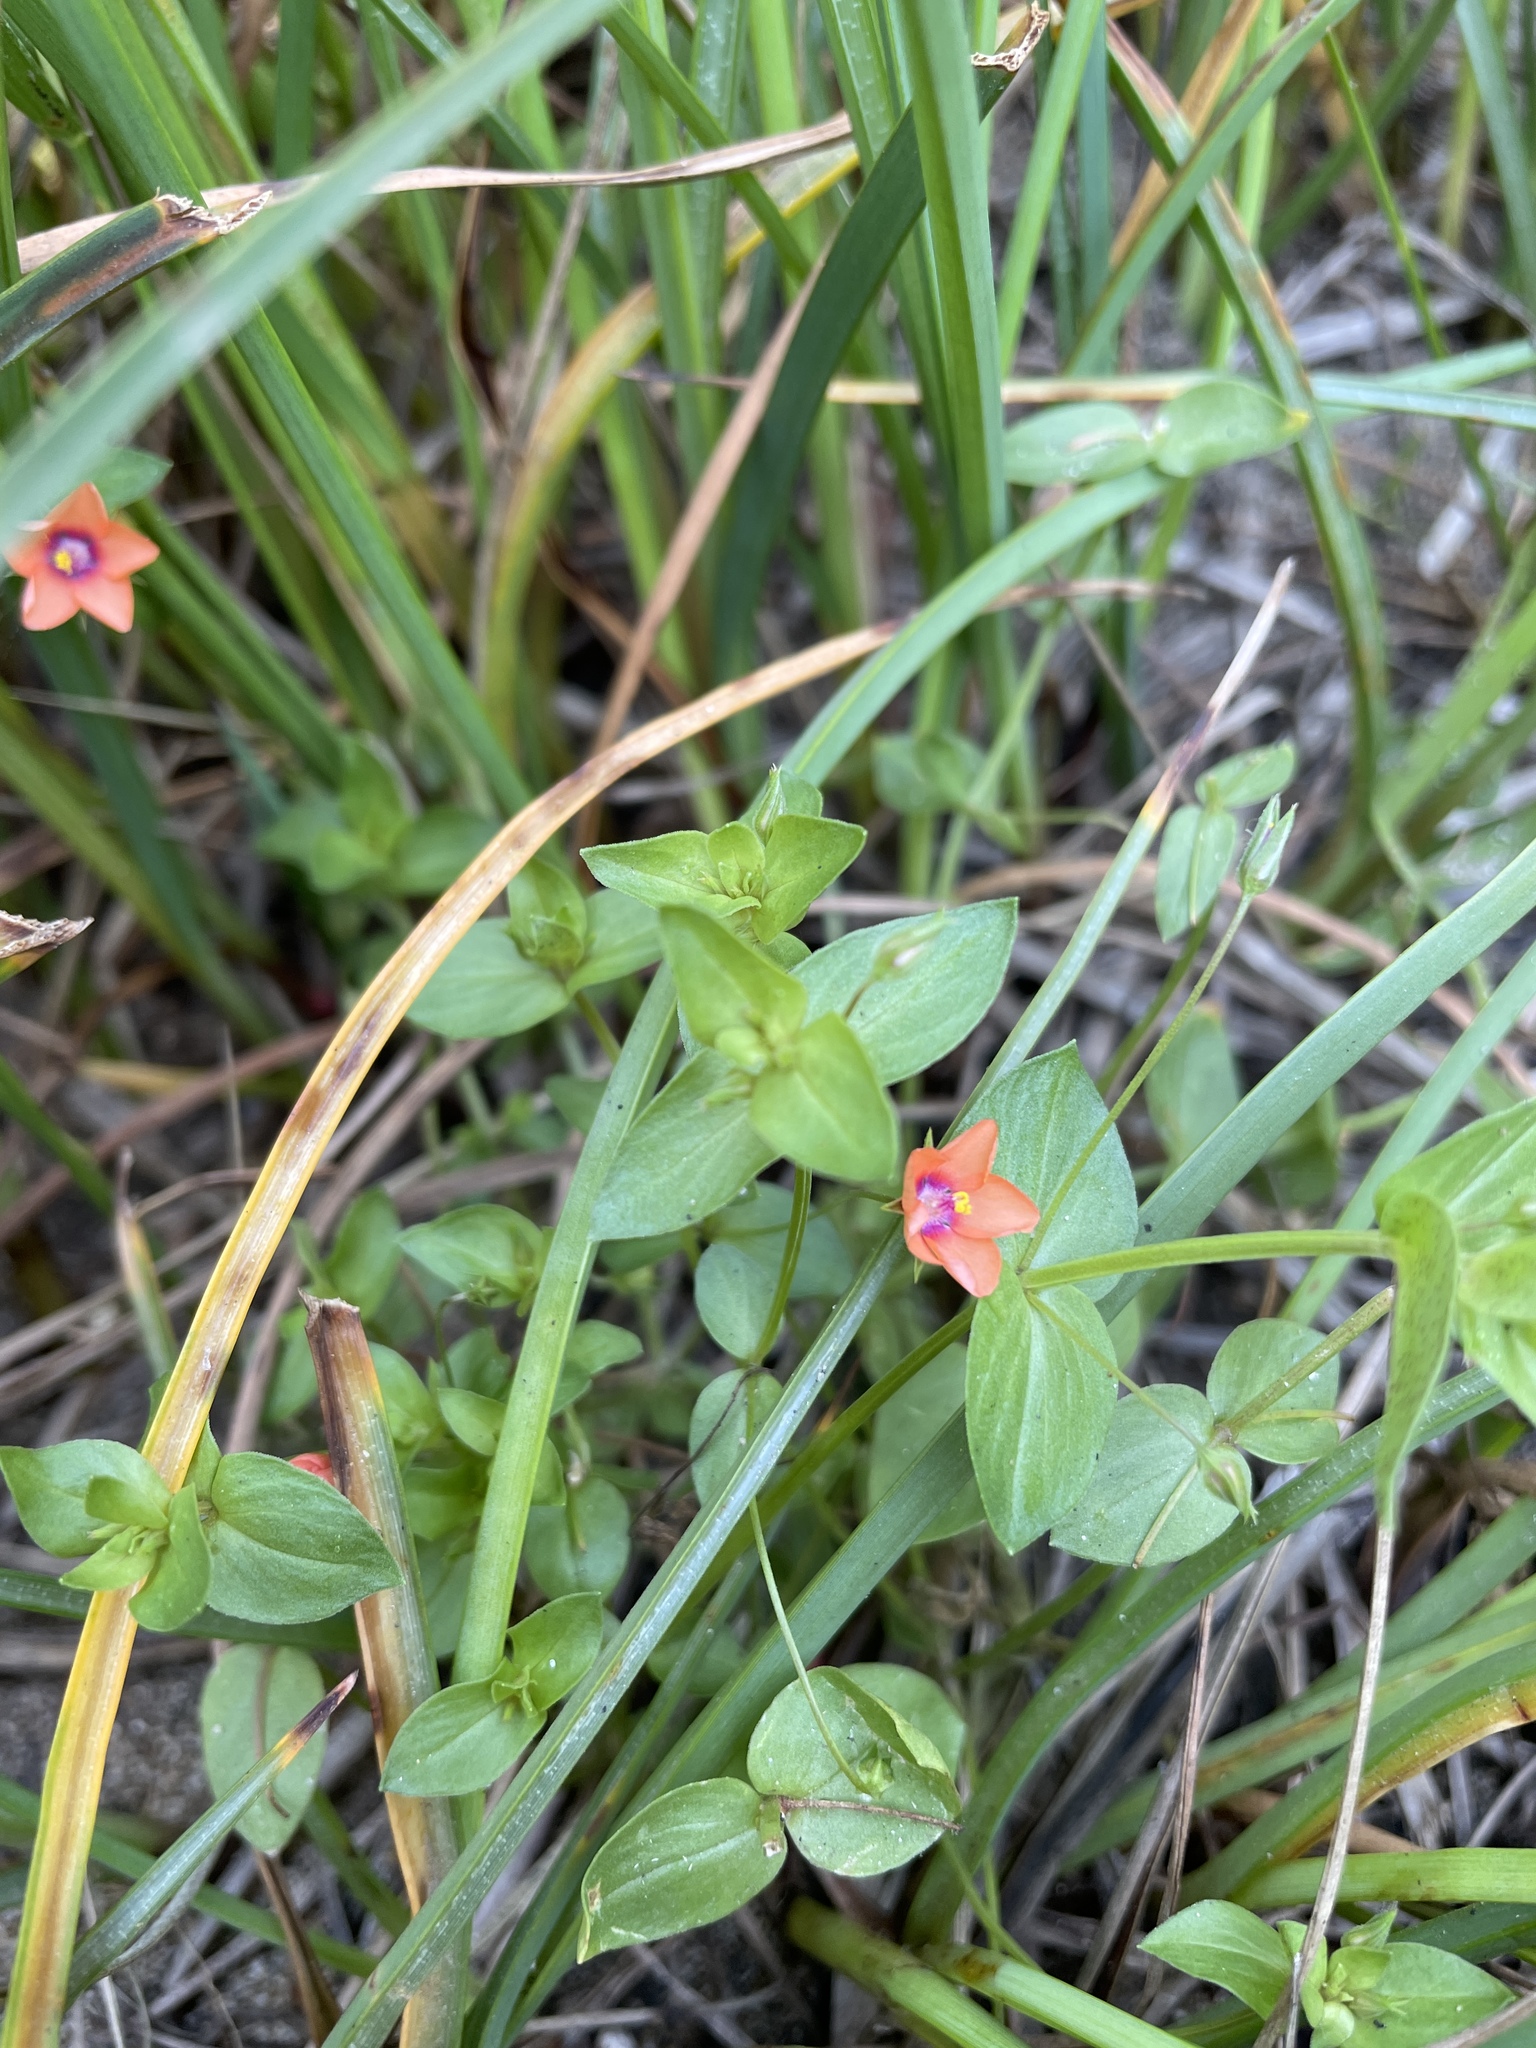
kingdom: Plantae
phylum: Tracheophyta
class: Magnoliopsida
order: Ericales
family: Primulaceae
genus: Lysimachia
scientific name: Lysimachia arvensis
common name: Scarlet pimpernel
